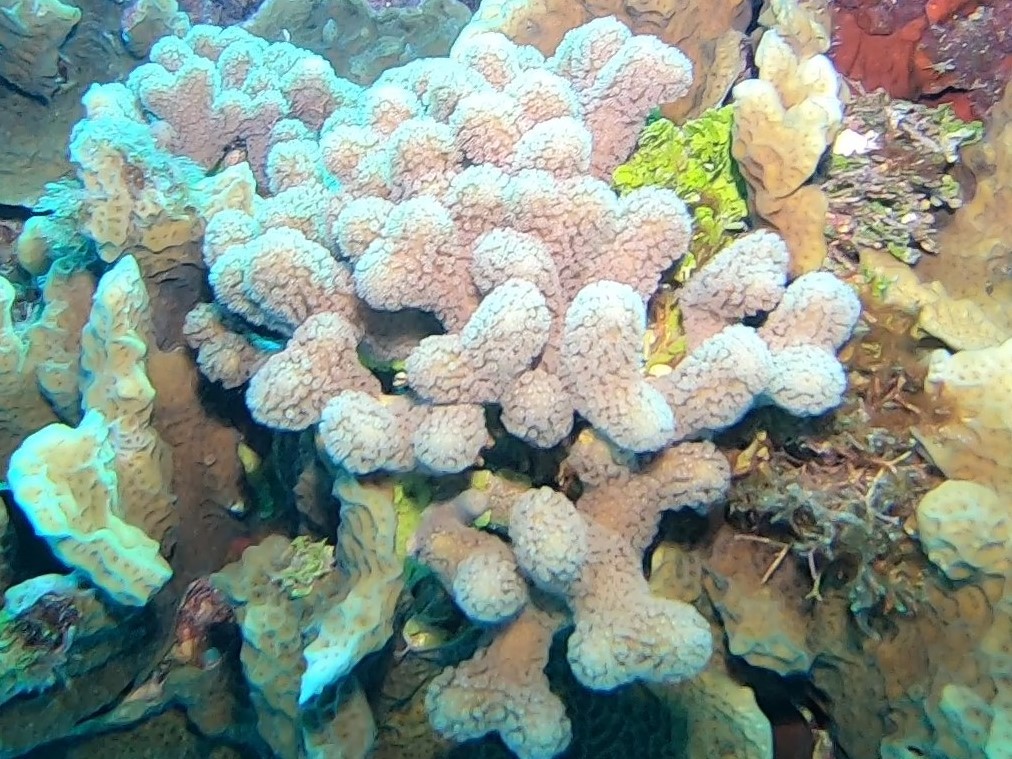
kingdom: Animalia
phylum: Cnidaria
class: Anthozoa
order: Scleractinia
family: Poritidae
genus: Porites
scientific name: Porites porites
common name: Finger coral
